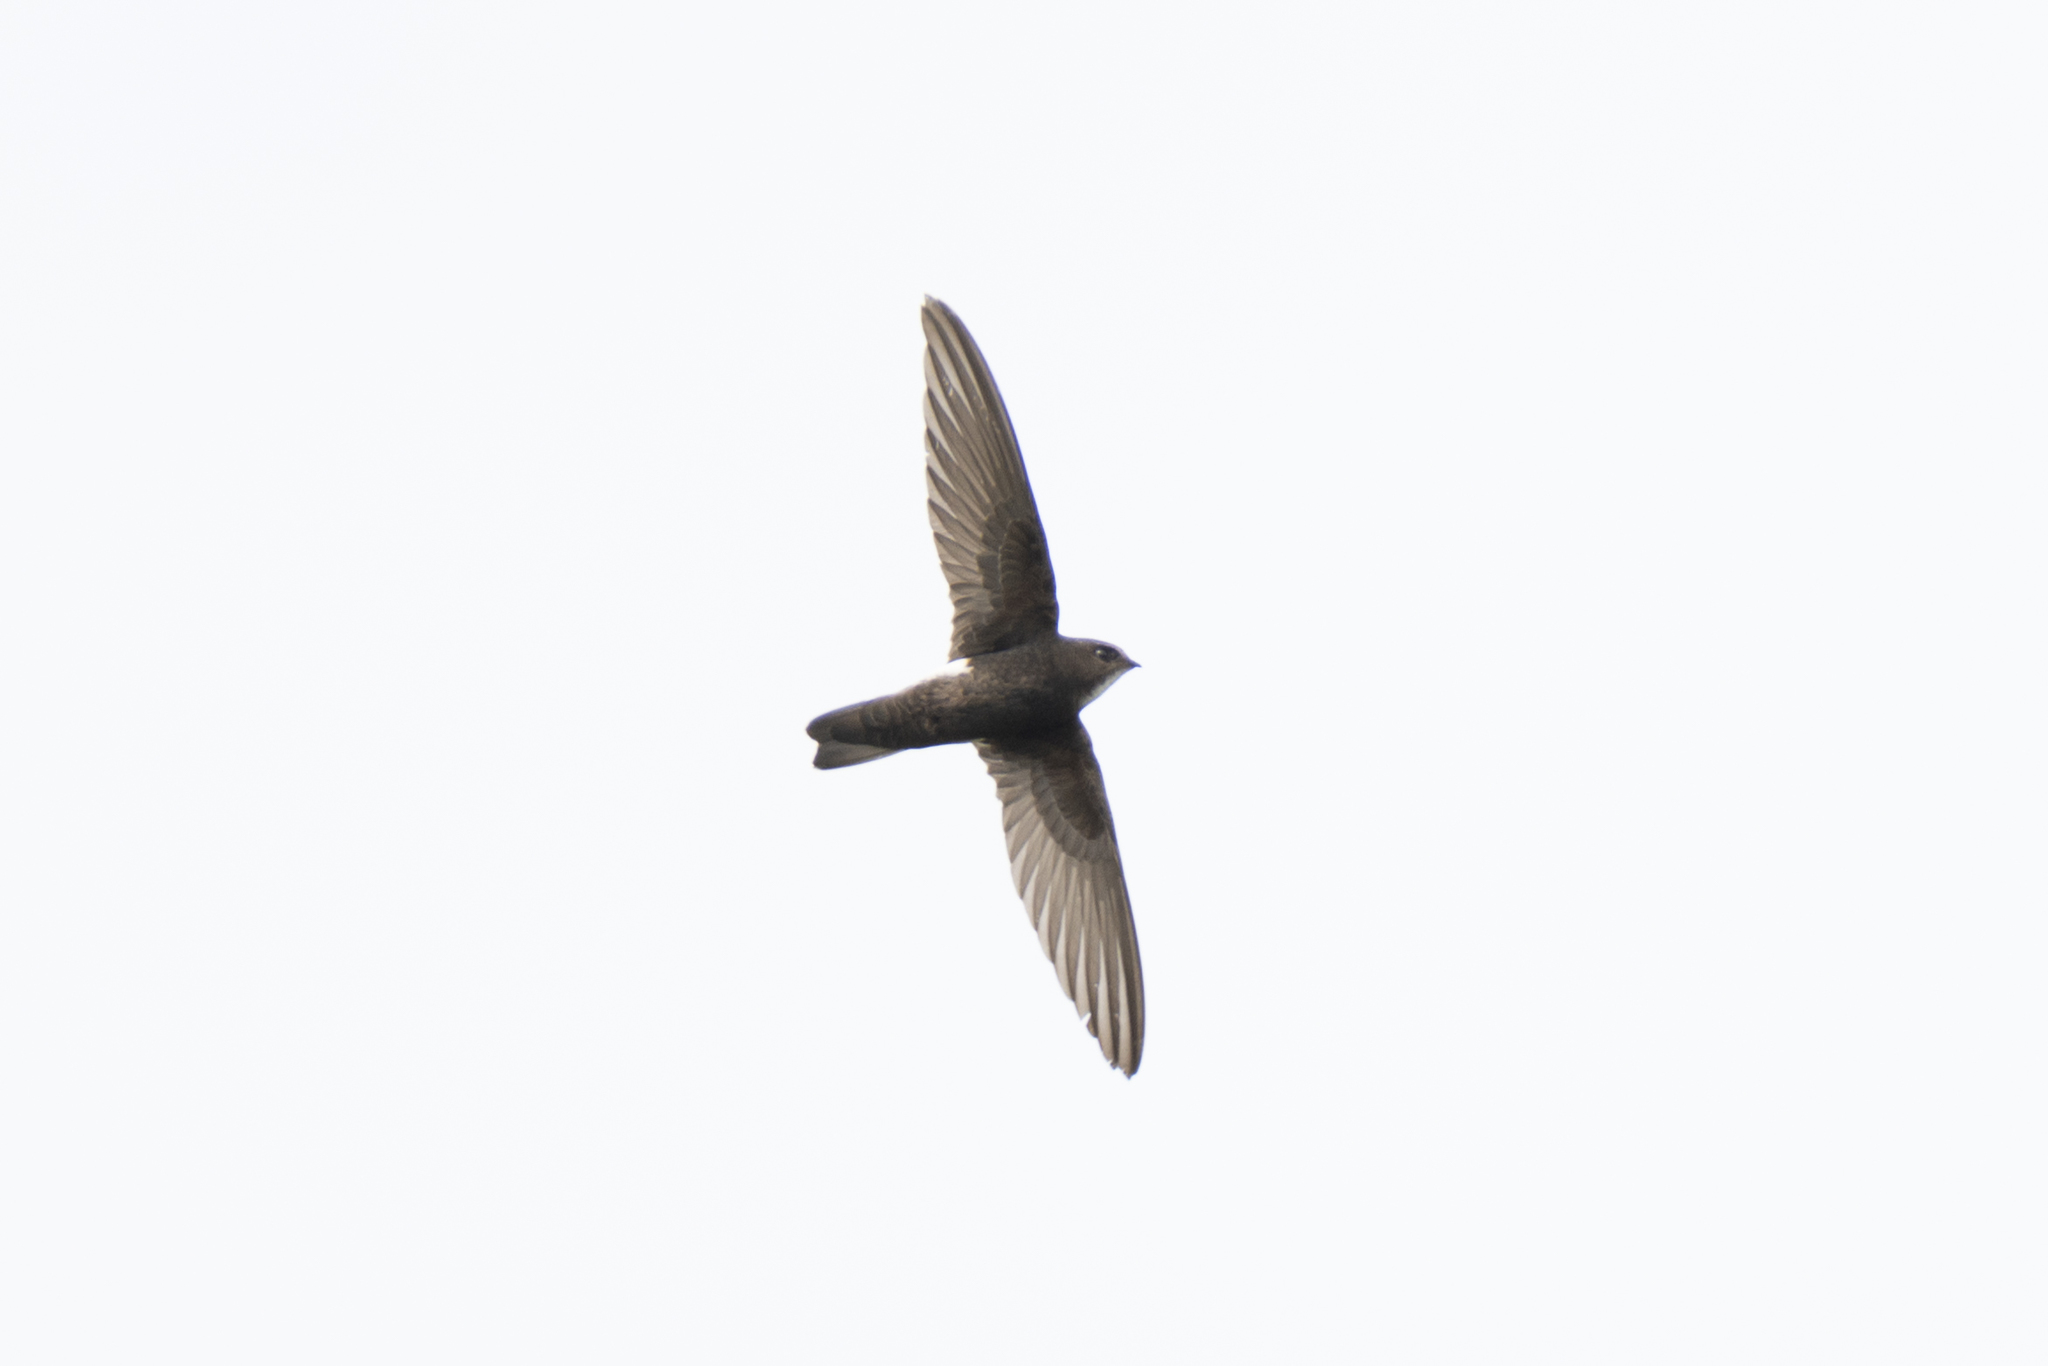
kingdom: Animalia
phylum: Chordata
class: Aves
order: Apodiformes
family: Apodidae
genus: Apus
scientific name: Apus nipalensis
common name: House swift
